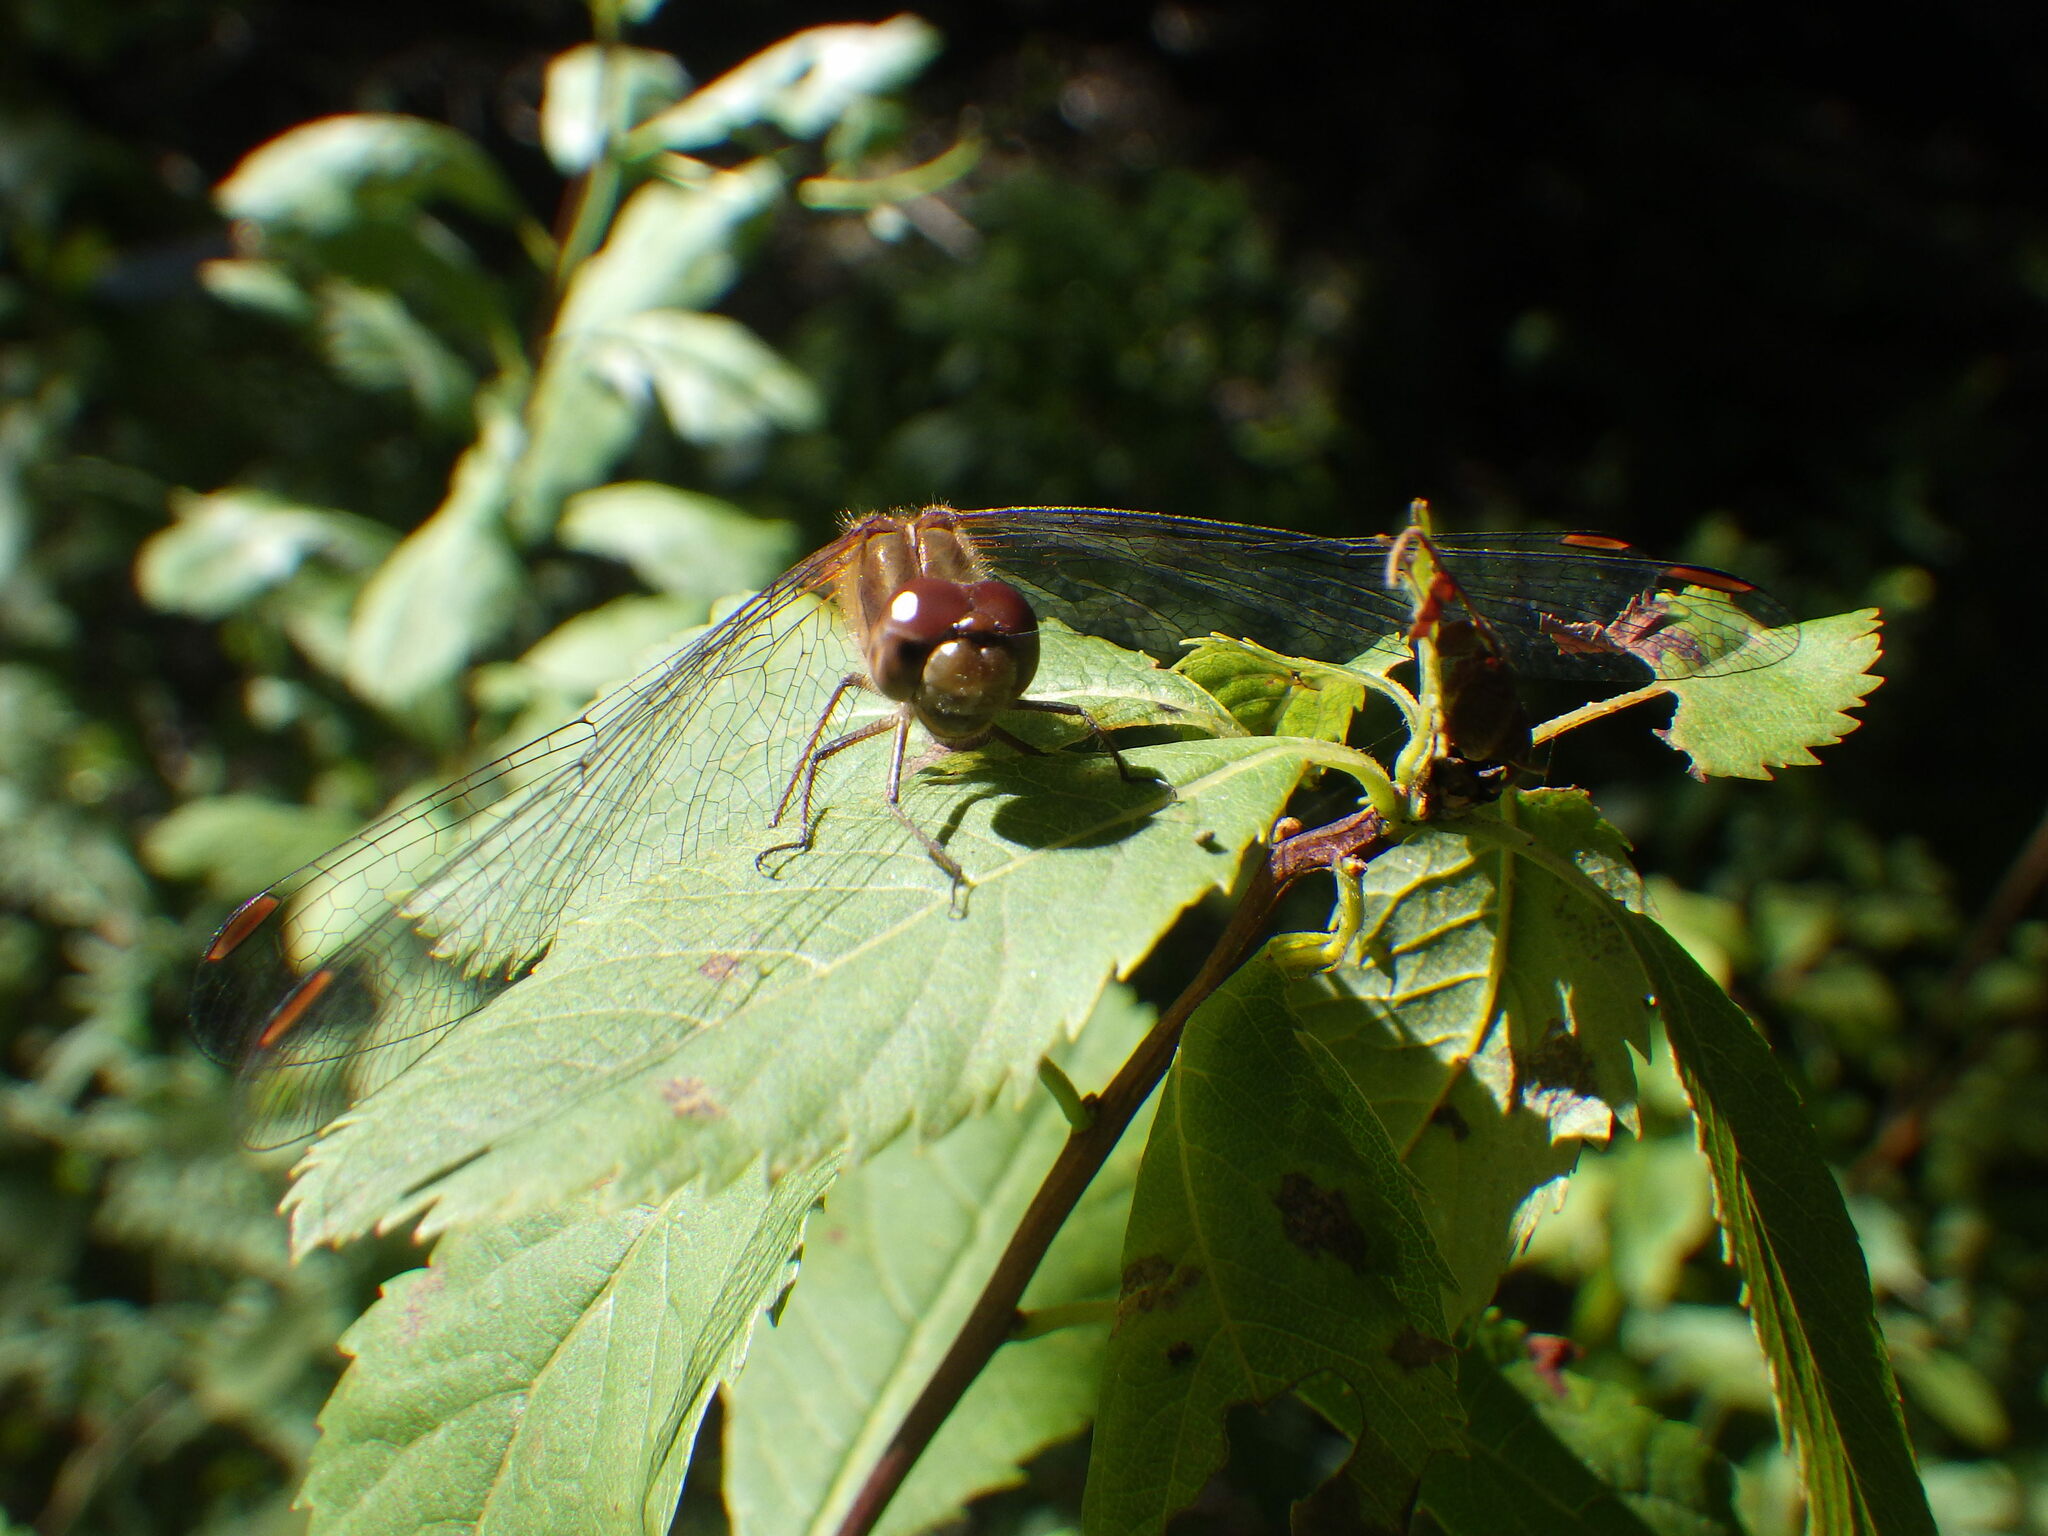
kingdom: Animalia
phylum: Arthropoda
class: Insecta
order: Odonata
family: Libellulidae
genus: Sympetrum
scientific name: Sympetrum vicinum
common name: Autumn meadowhawk
